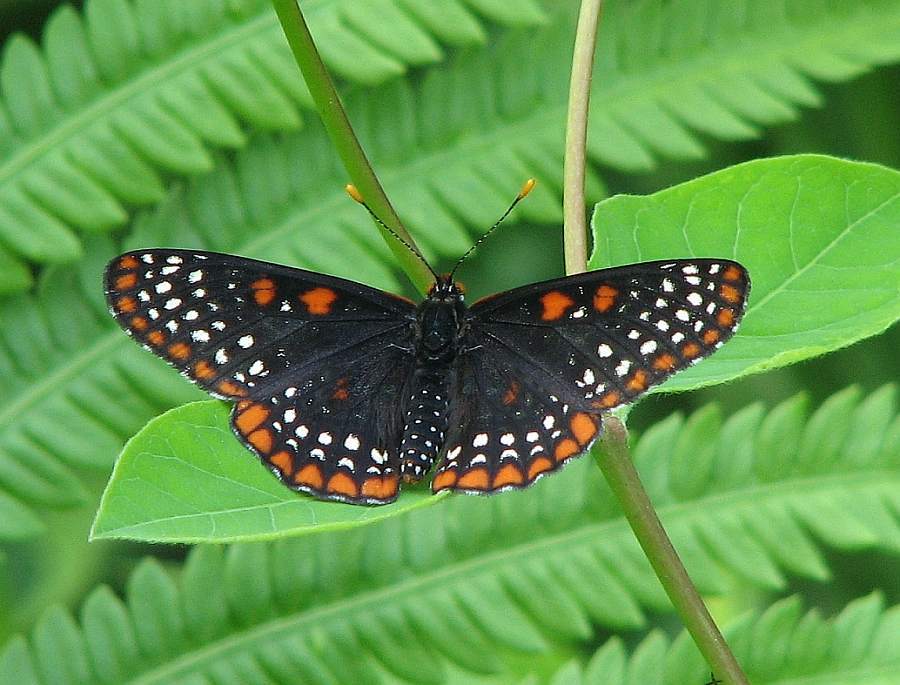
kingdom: Animalia
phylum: Arthropoda
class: Insecta
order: Lepidoptera
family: Nymphalidae
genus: Euphydryas
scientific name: Euphydryas phaeton
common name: Baltimore checkerspot
